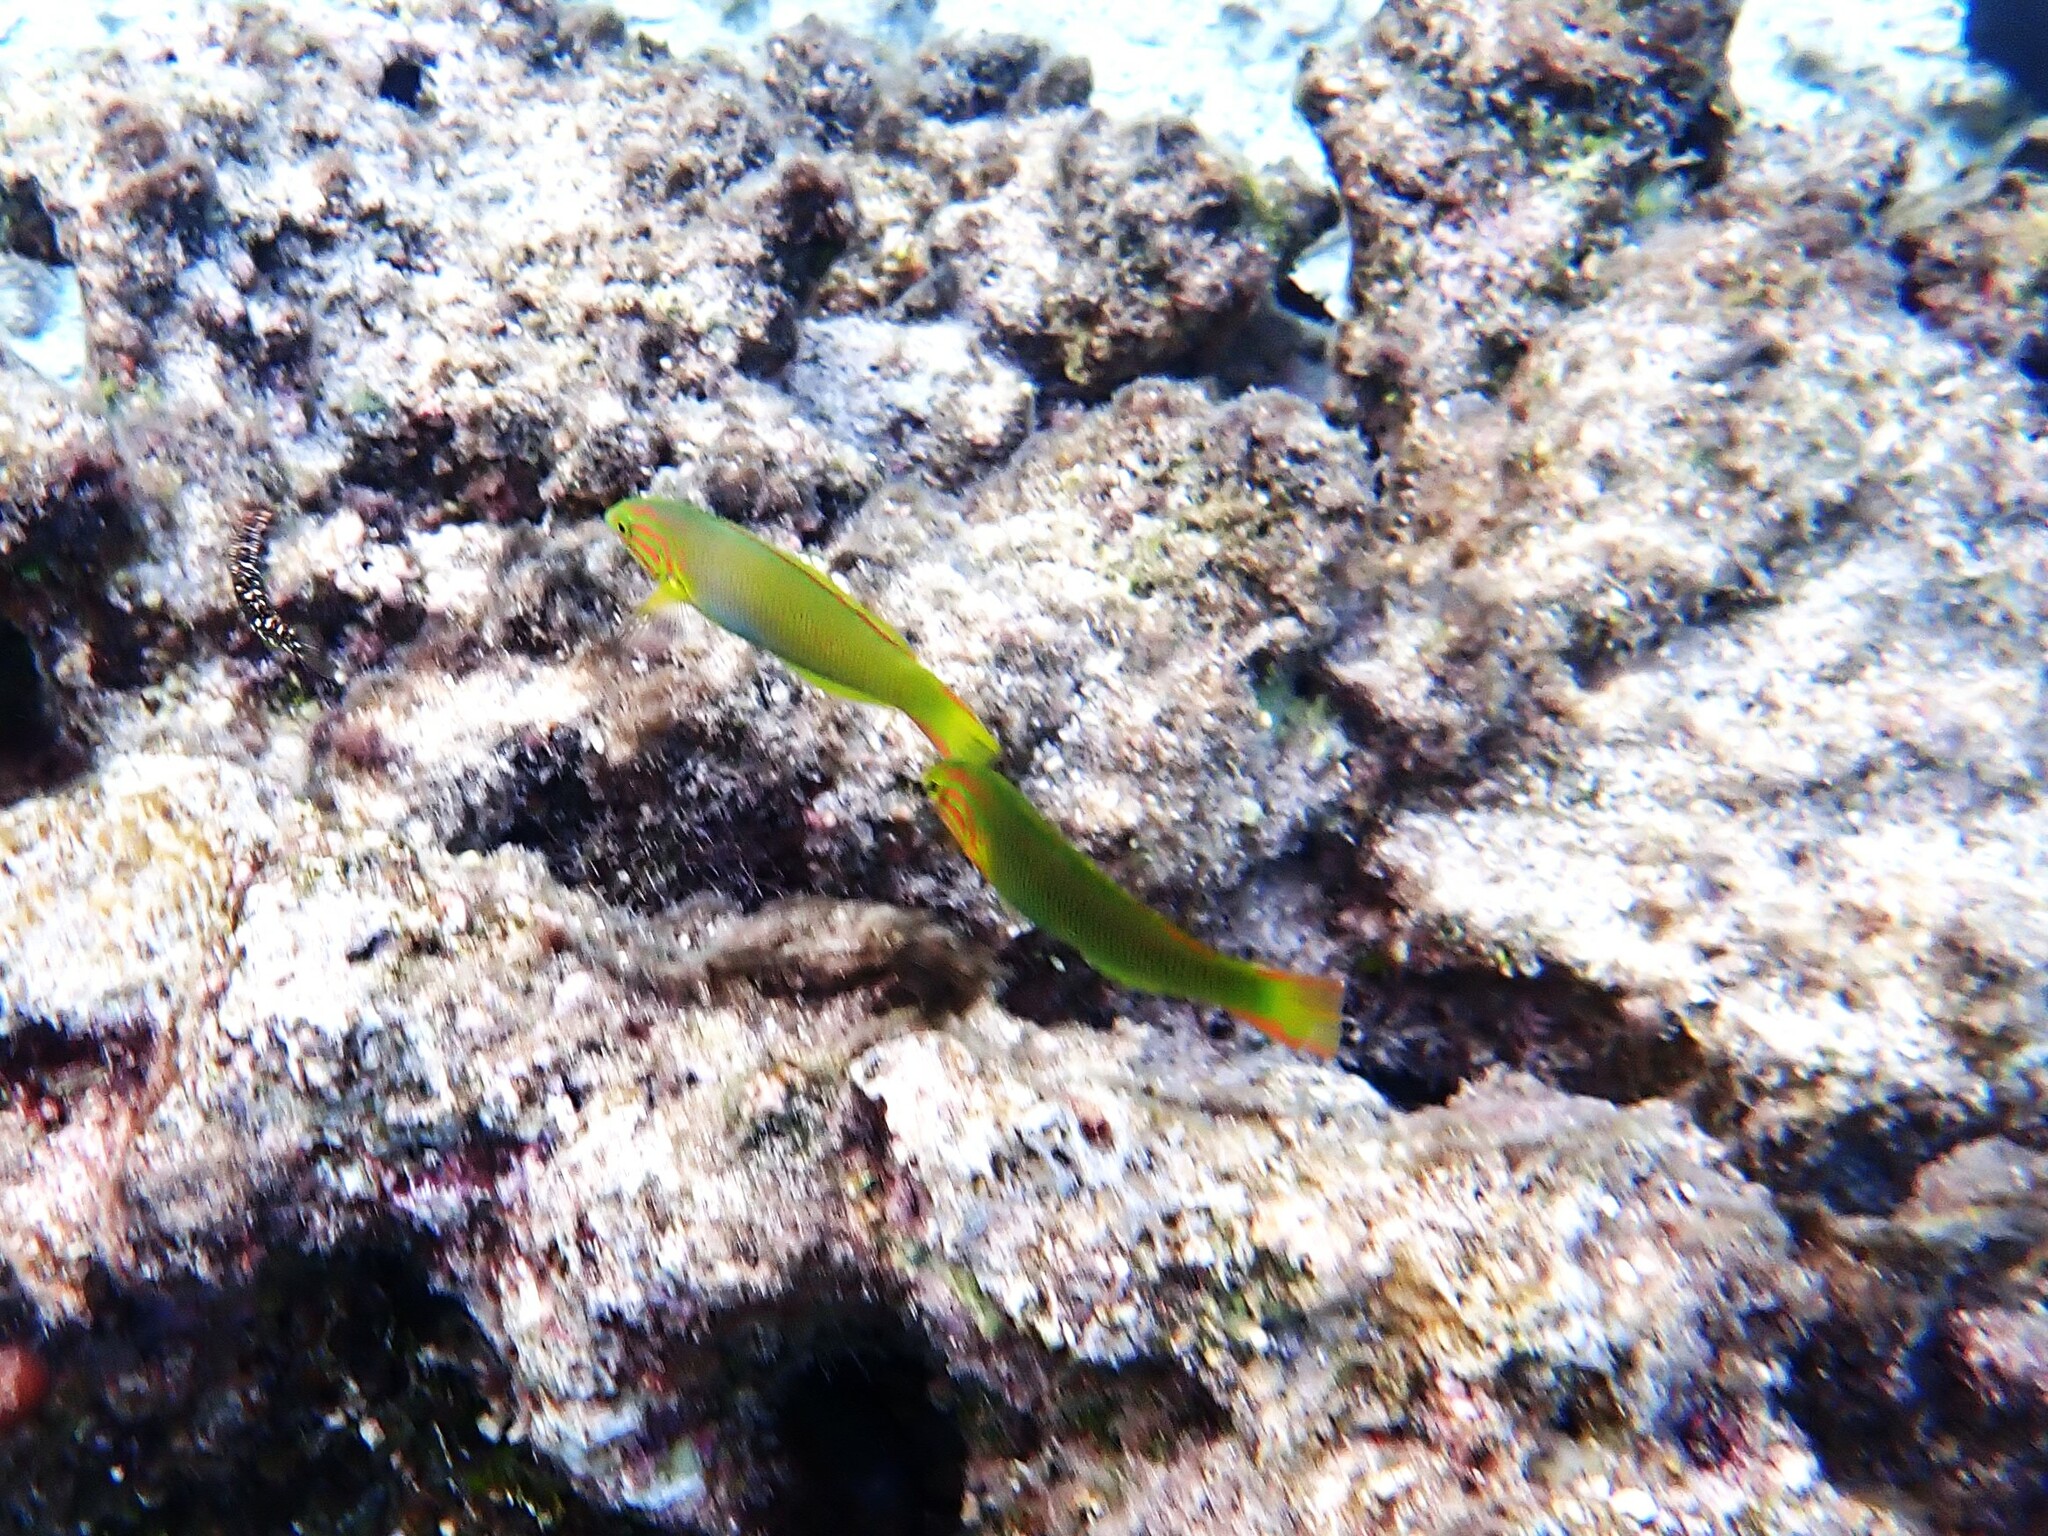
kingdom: Animalia
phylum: Chordata
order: Perciformes
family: Labridae
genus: Thalassoma
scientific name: Thalassoma lutescens
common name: Green moon wrasse
